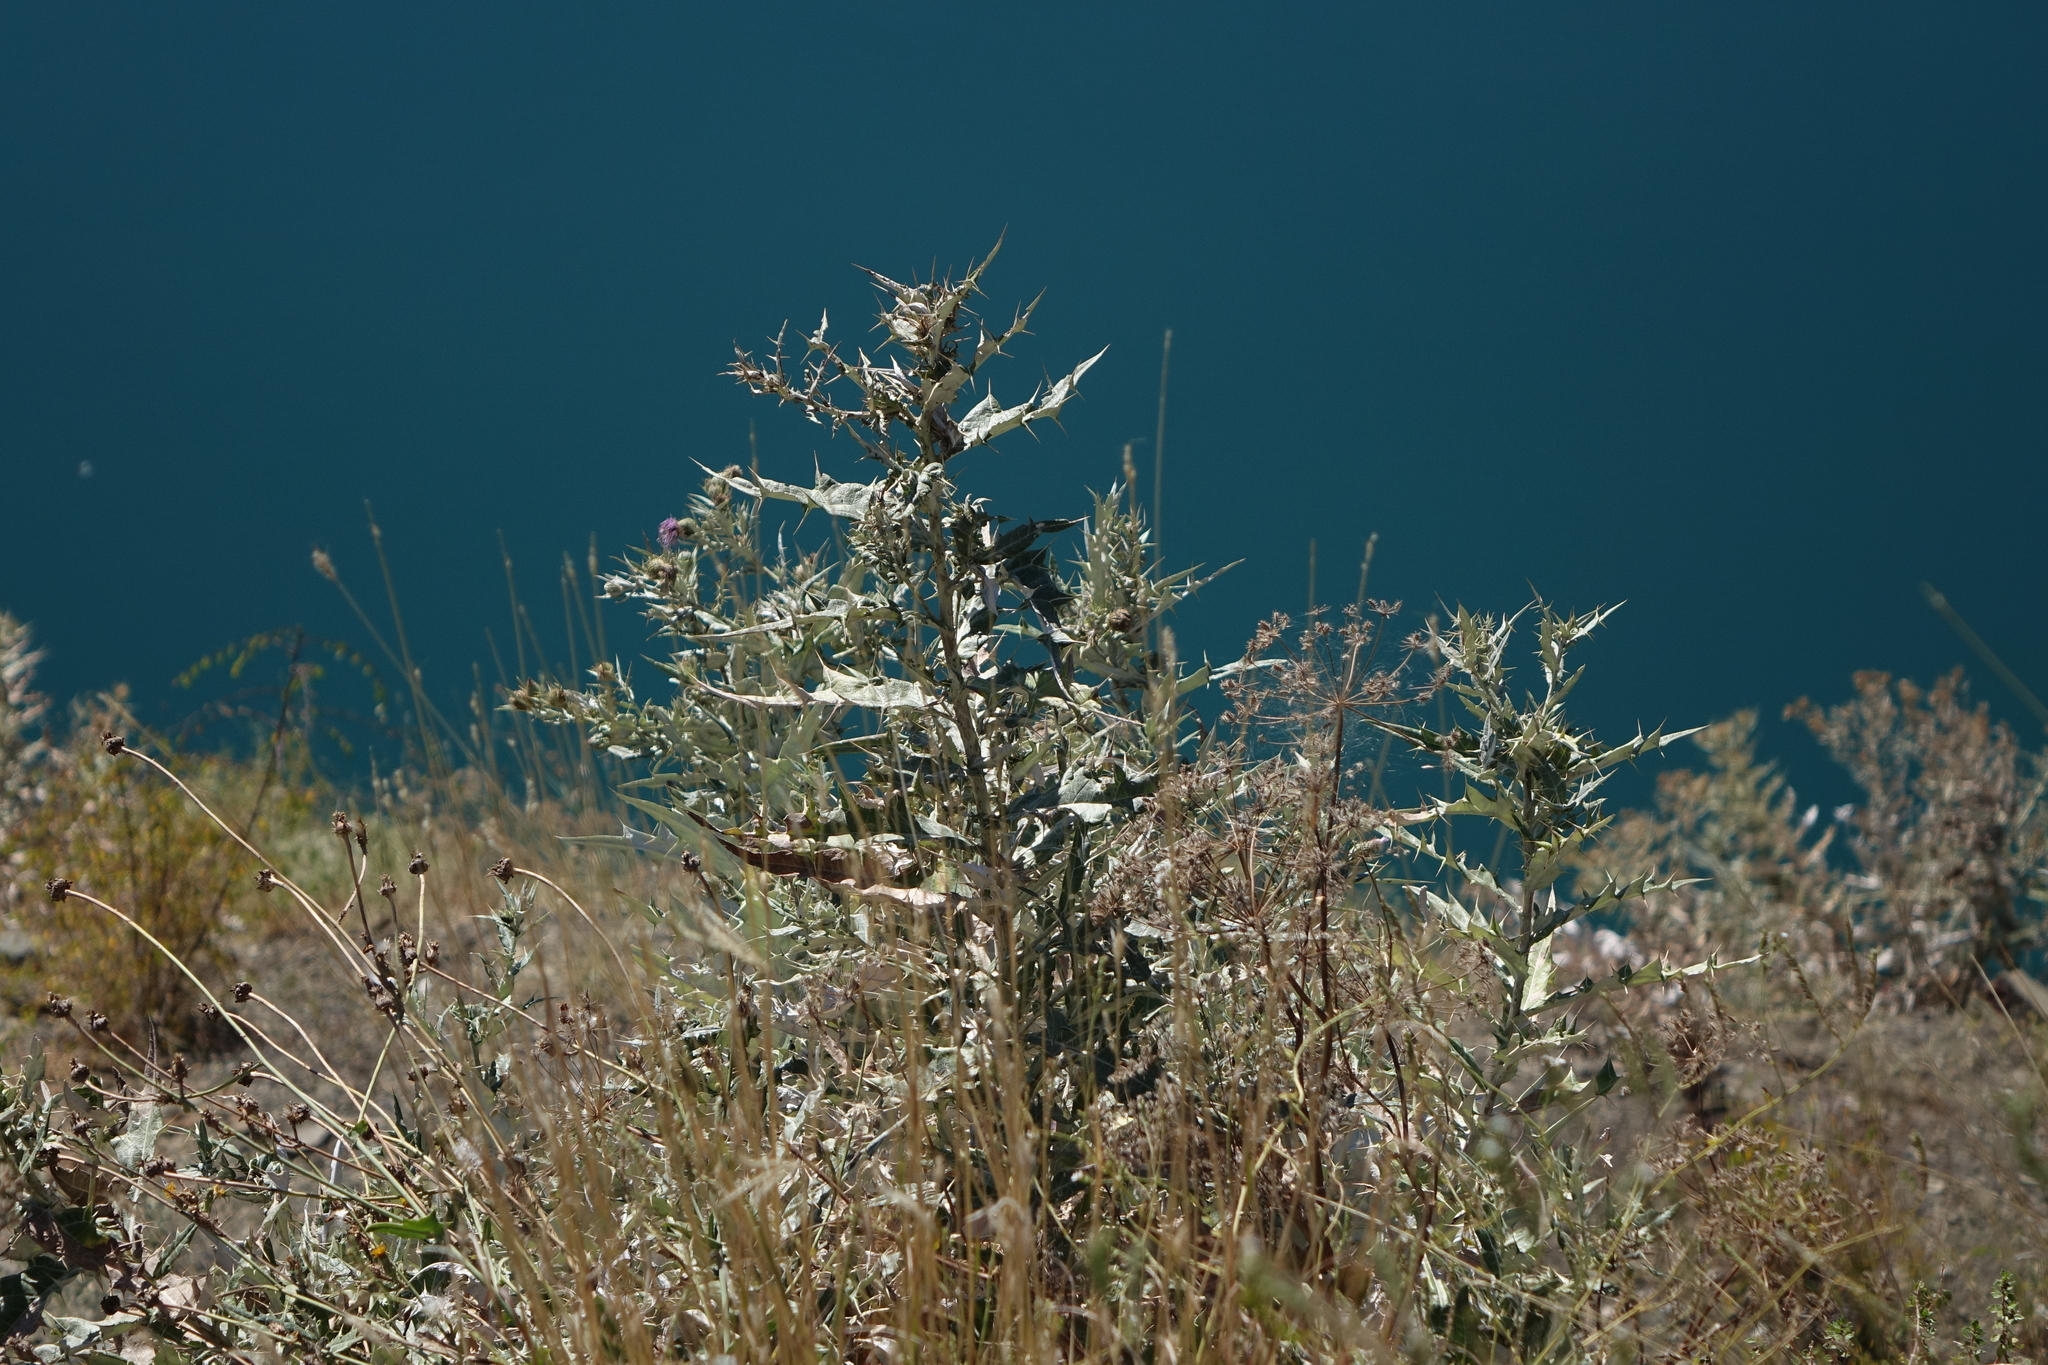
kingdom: Plantae
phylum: Tracheophyta
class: Magnoliopsida
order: Asterales
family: Asteraceae
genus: Lophiolepis
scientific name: Lophiolepis argillosa
